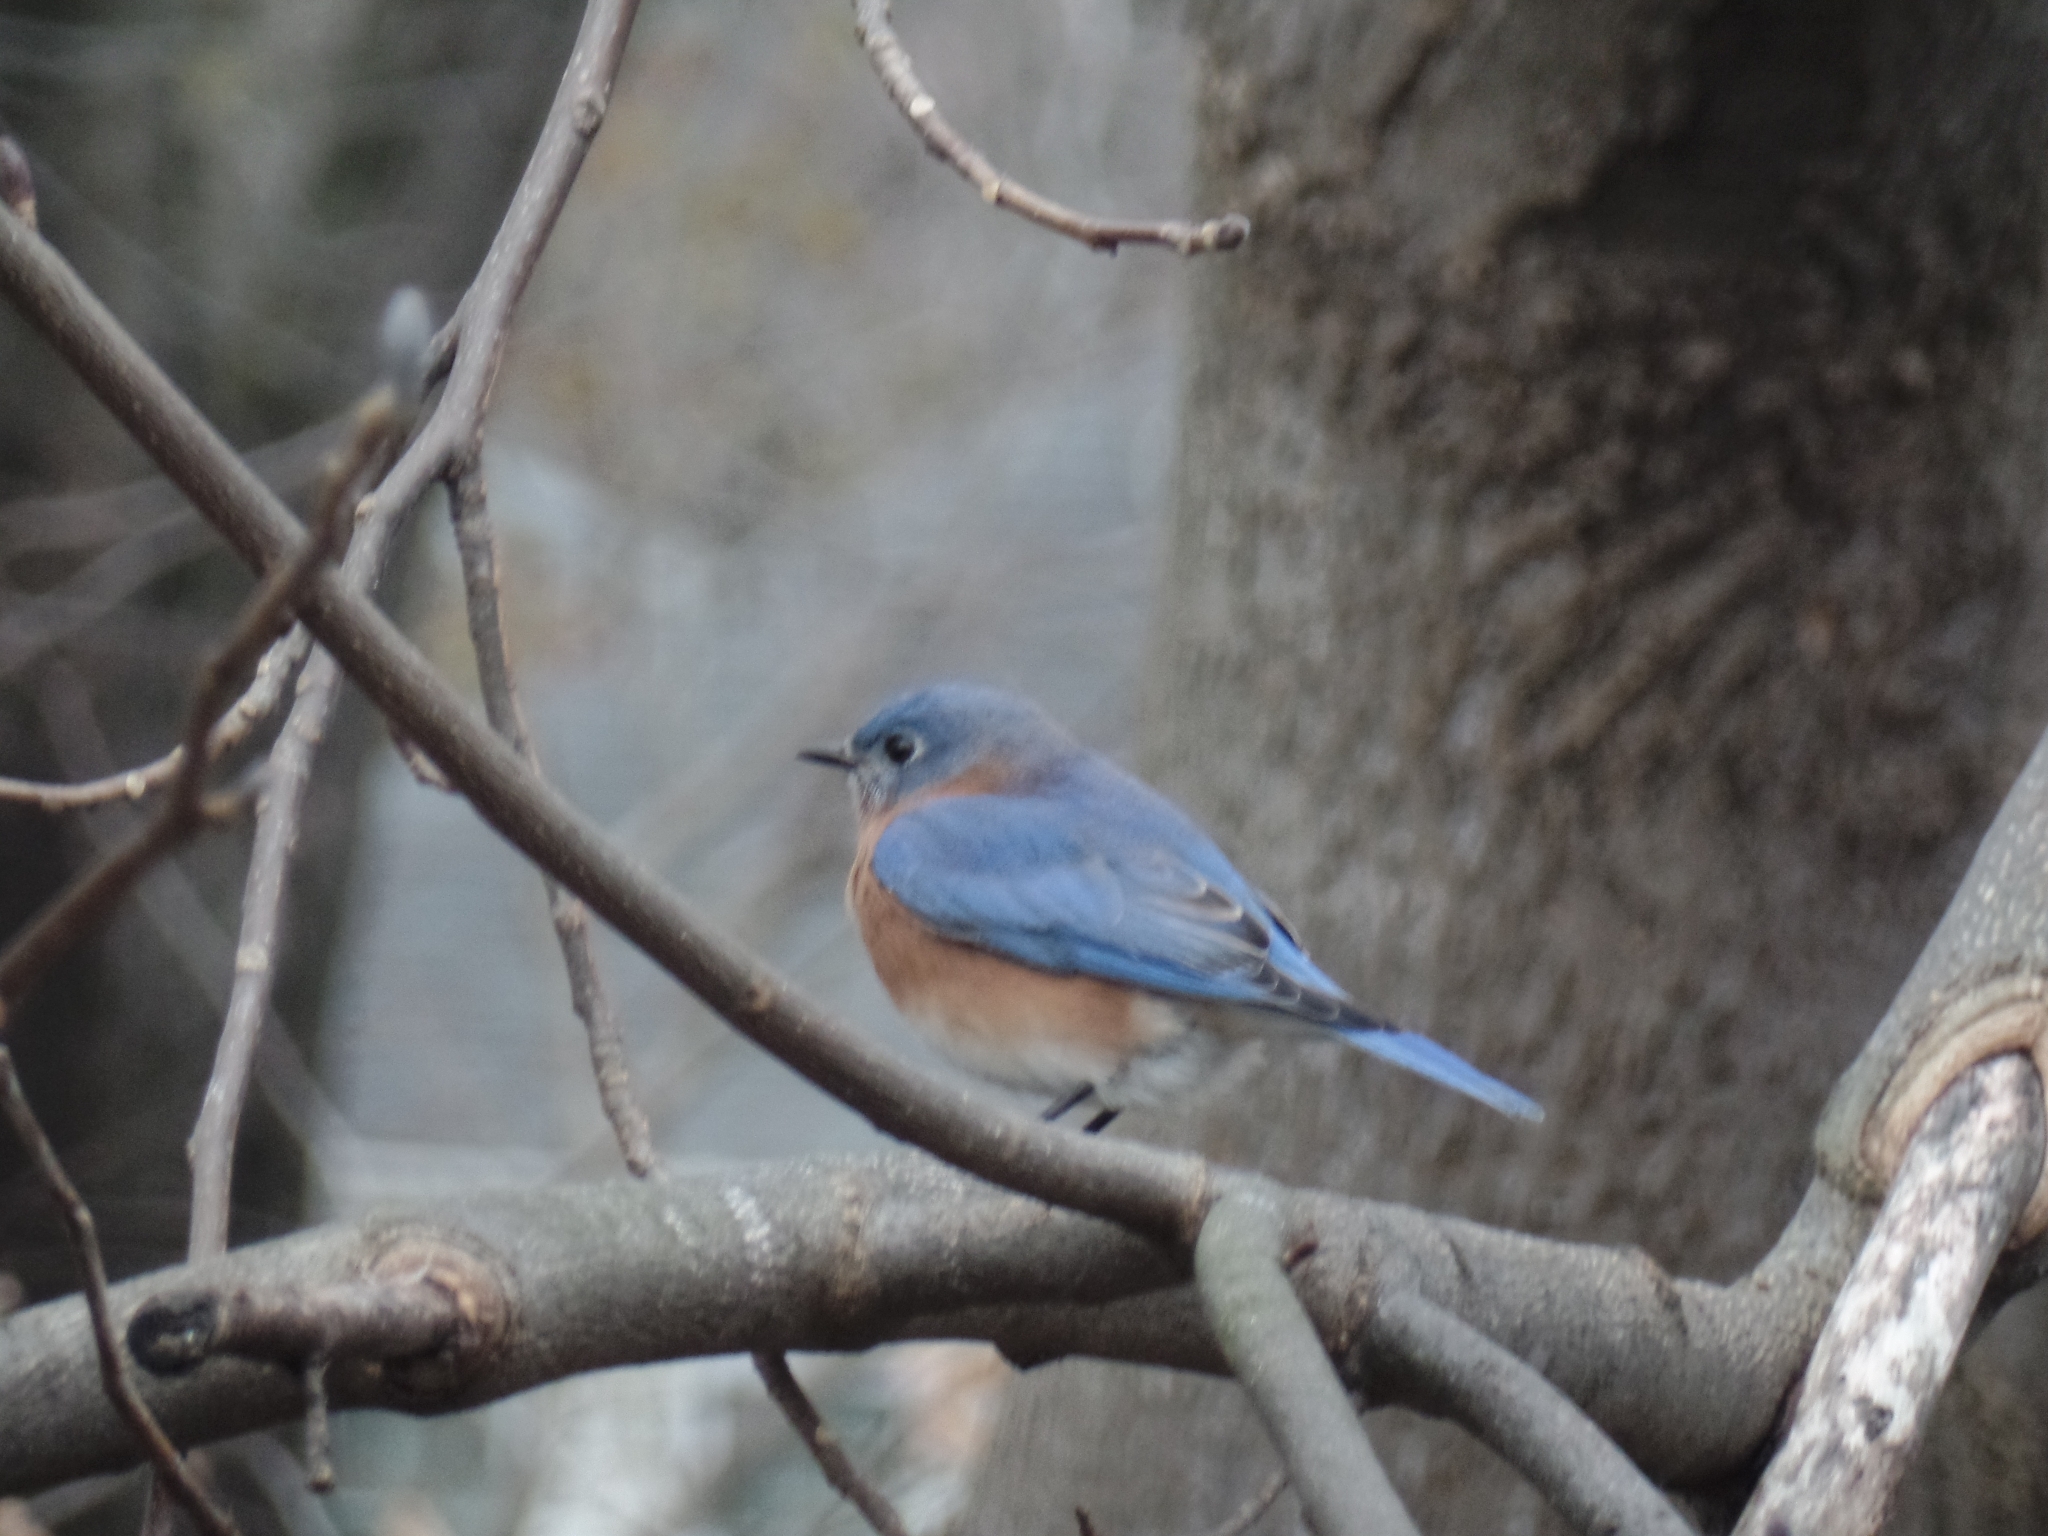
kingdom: Animalia
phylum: Chordata
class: Aves
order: Passeriformes
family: Turdidae
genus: Sialia
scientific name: Sialia sialis
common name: Eastern bluebird
